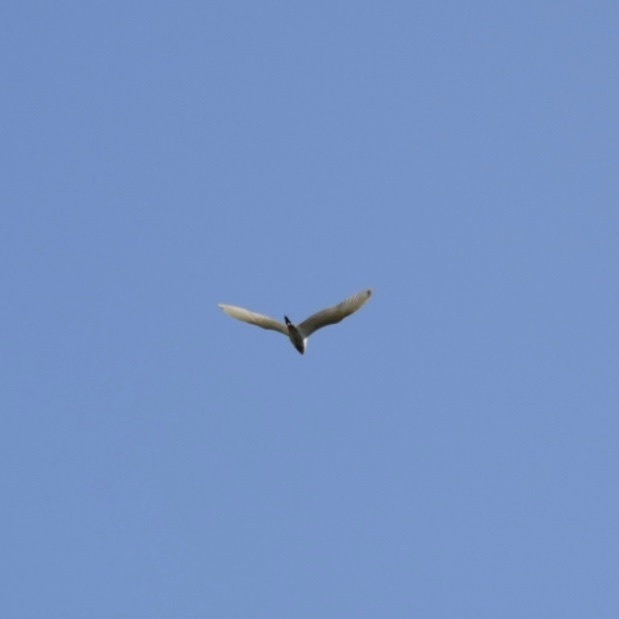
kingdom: Animalia
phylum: Chordata
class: Aves
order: Pelecaniformes
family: Ardeidae
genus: Bubulcus
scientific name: Bubulcus ibis
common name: Cattle egret
